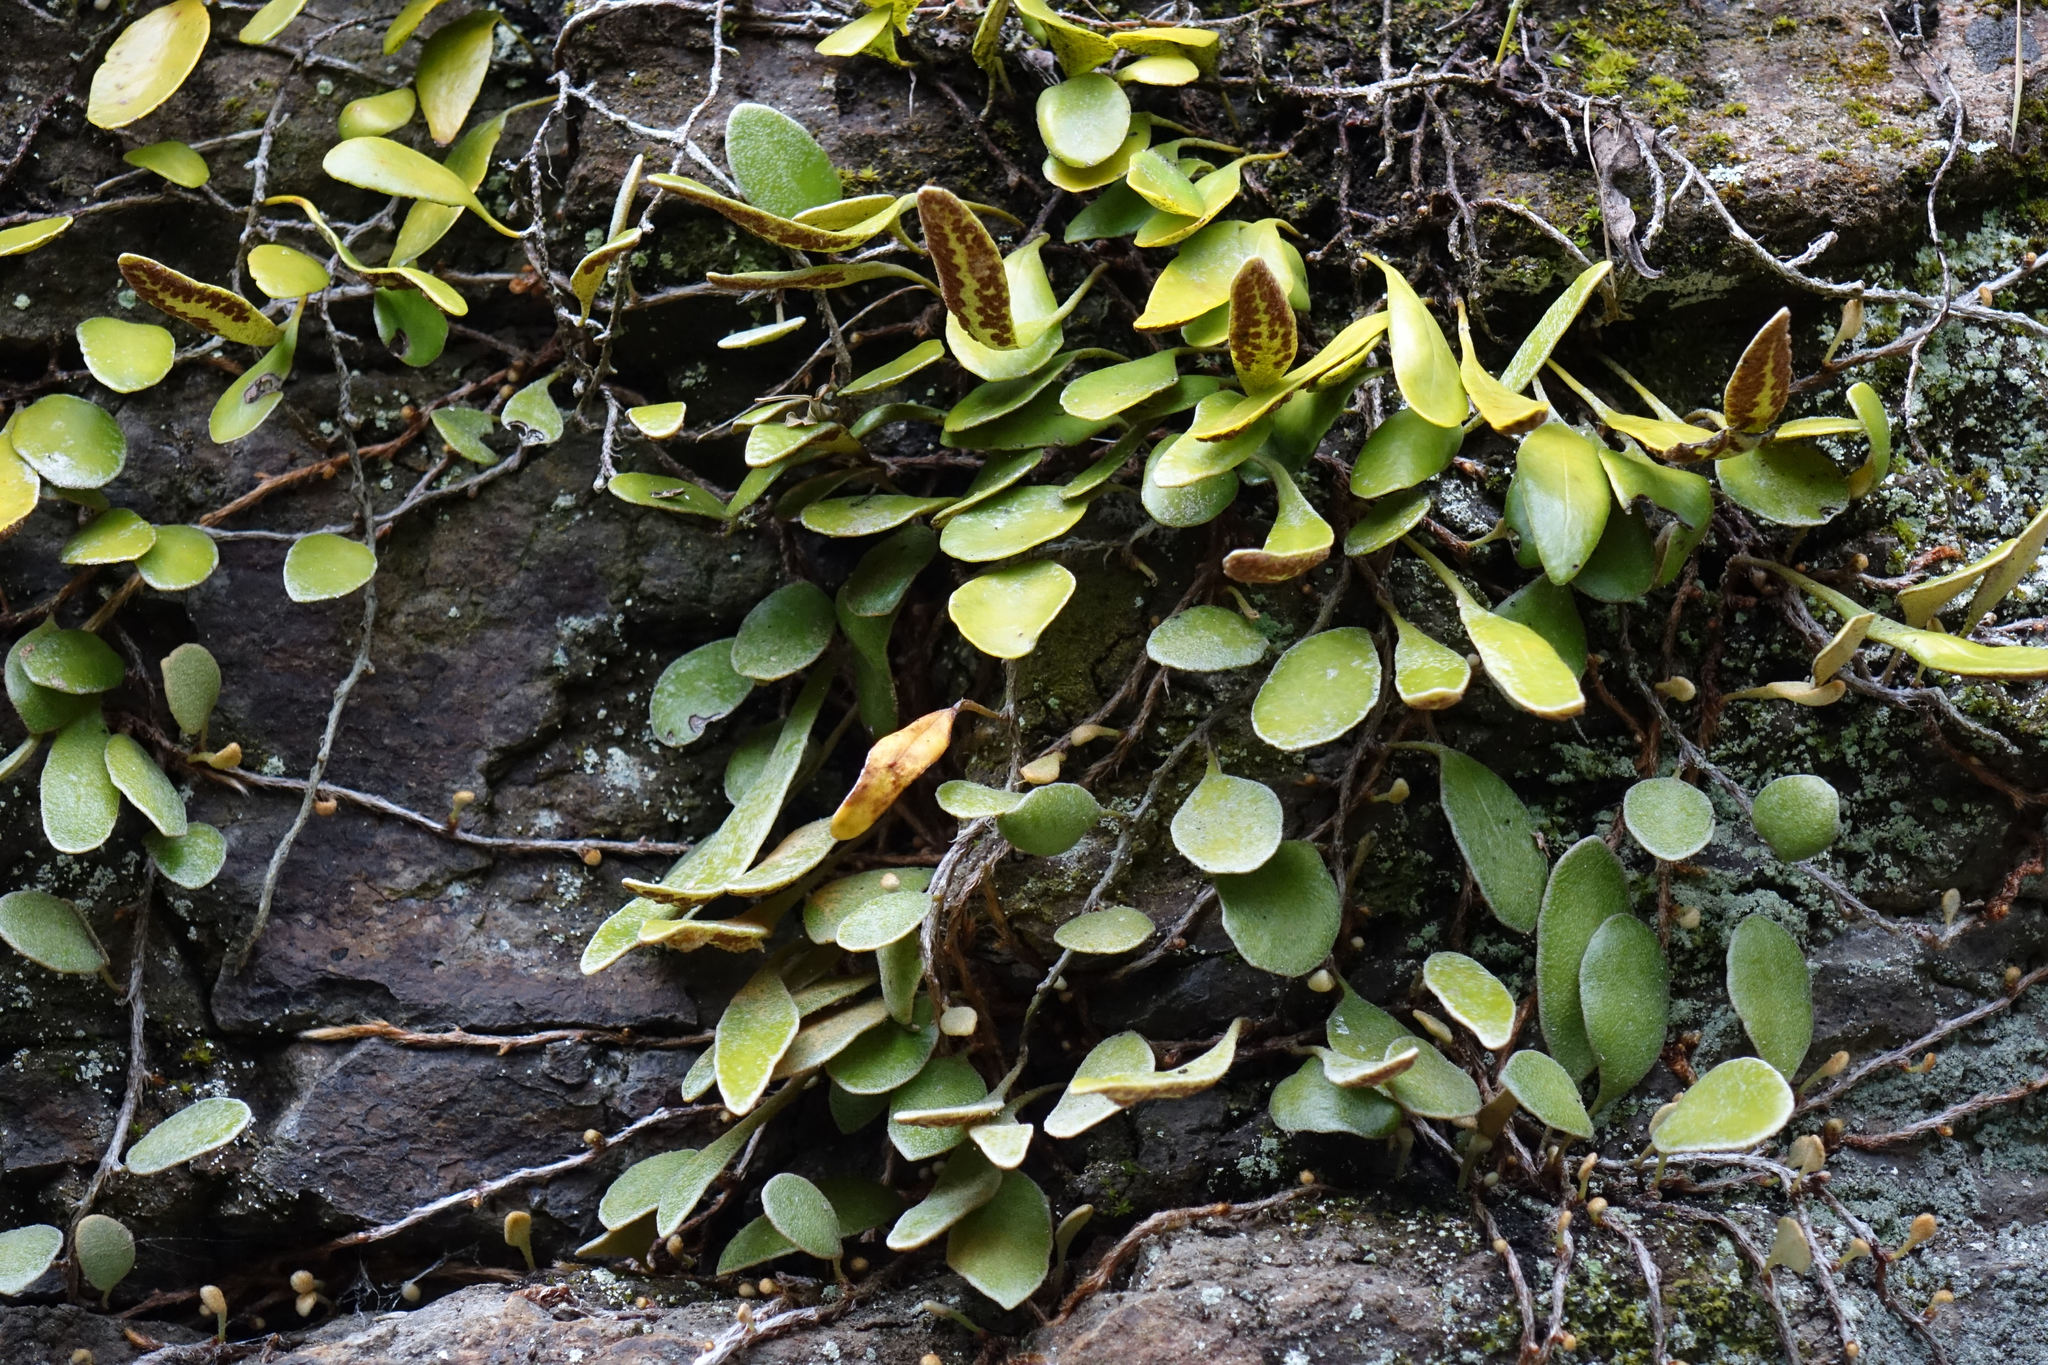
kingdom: Plantae
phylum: Tracheophyta
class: Polypodiopsida
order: Polypodiales
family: Polypodiaceae
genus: Pyrrosia
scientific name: Pyrrosia eleagnifolia
